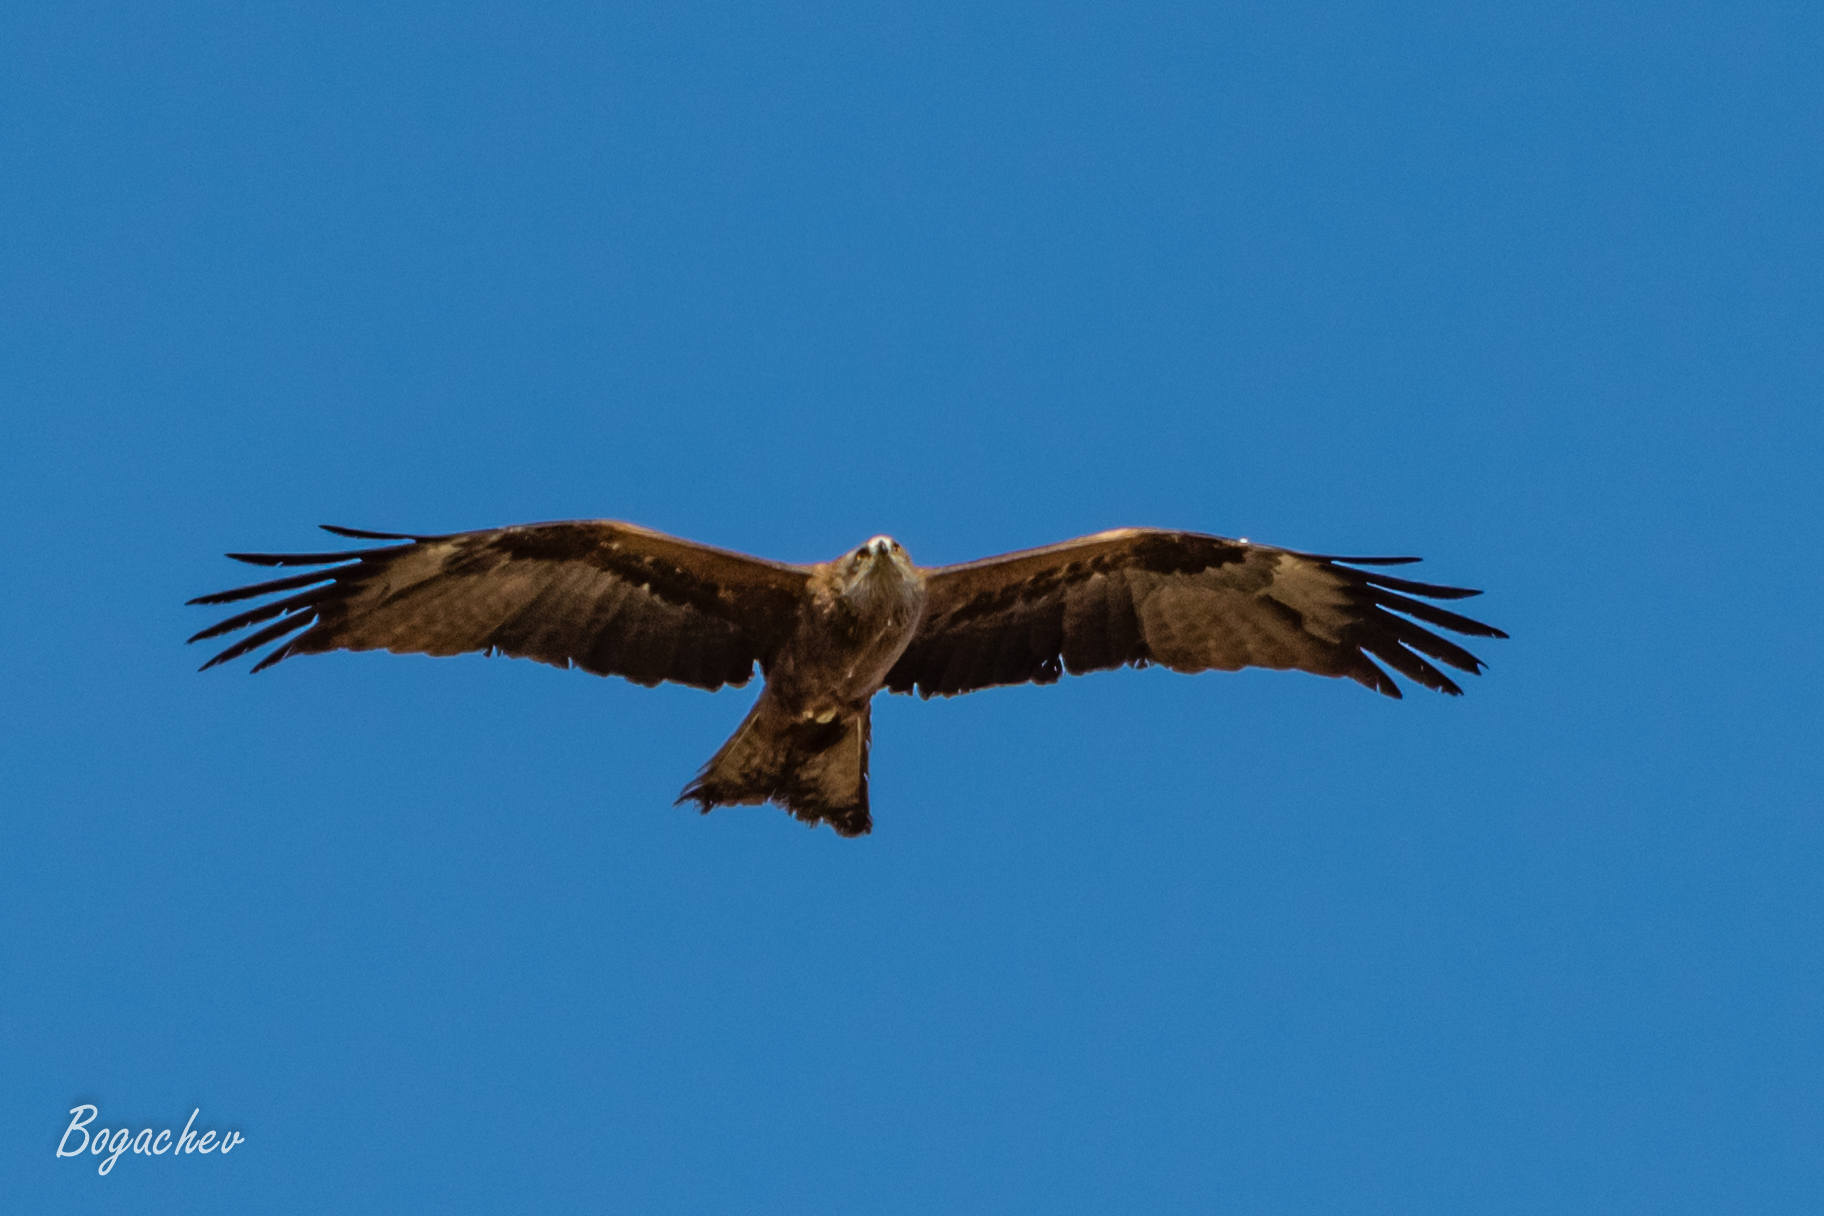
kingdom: Animalia
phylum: Chordata
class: Aves
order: Accipitriformes
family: Accipitridae
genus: Milvus
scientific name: Milvus migrans
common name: Black kite
